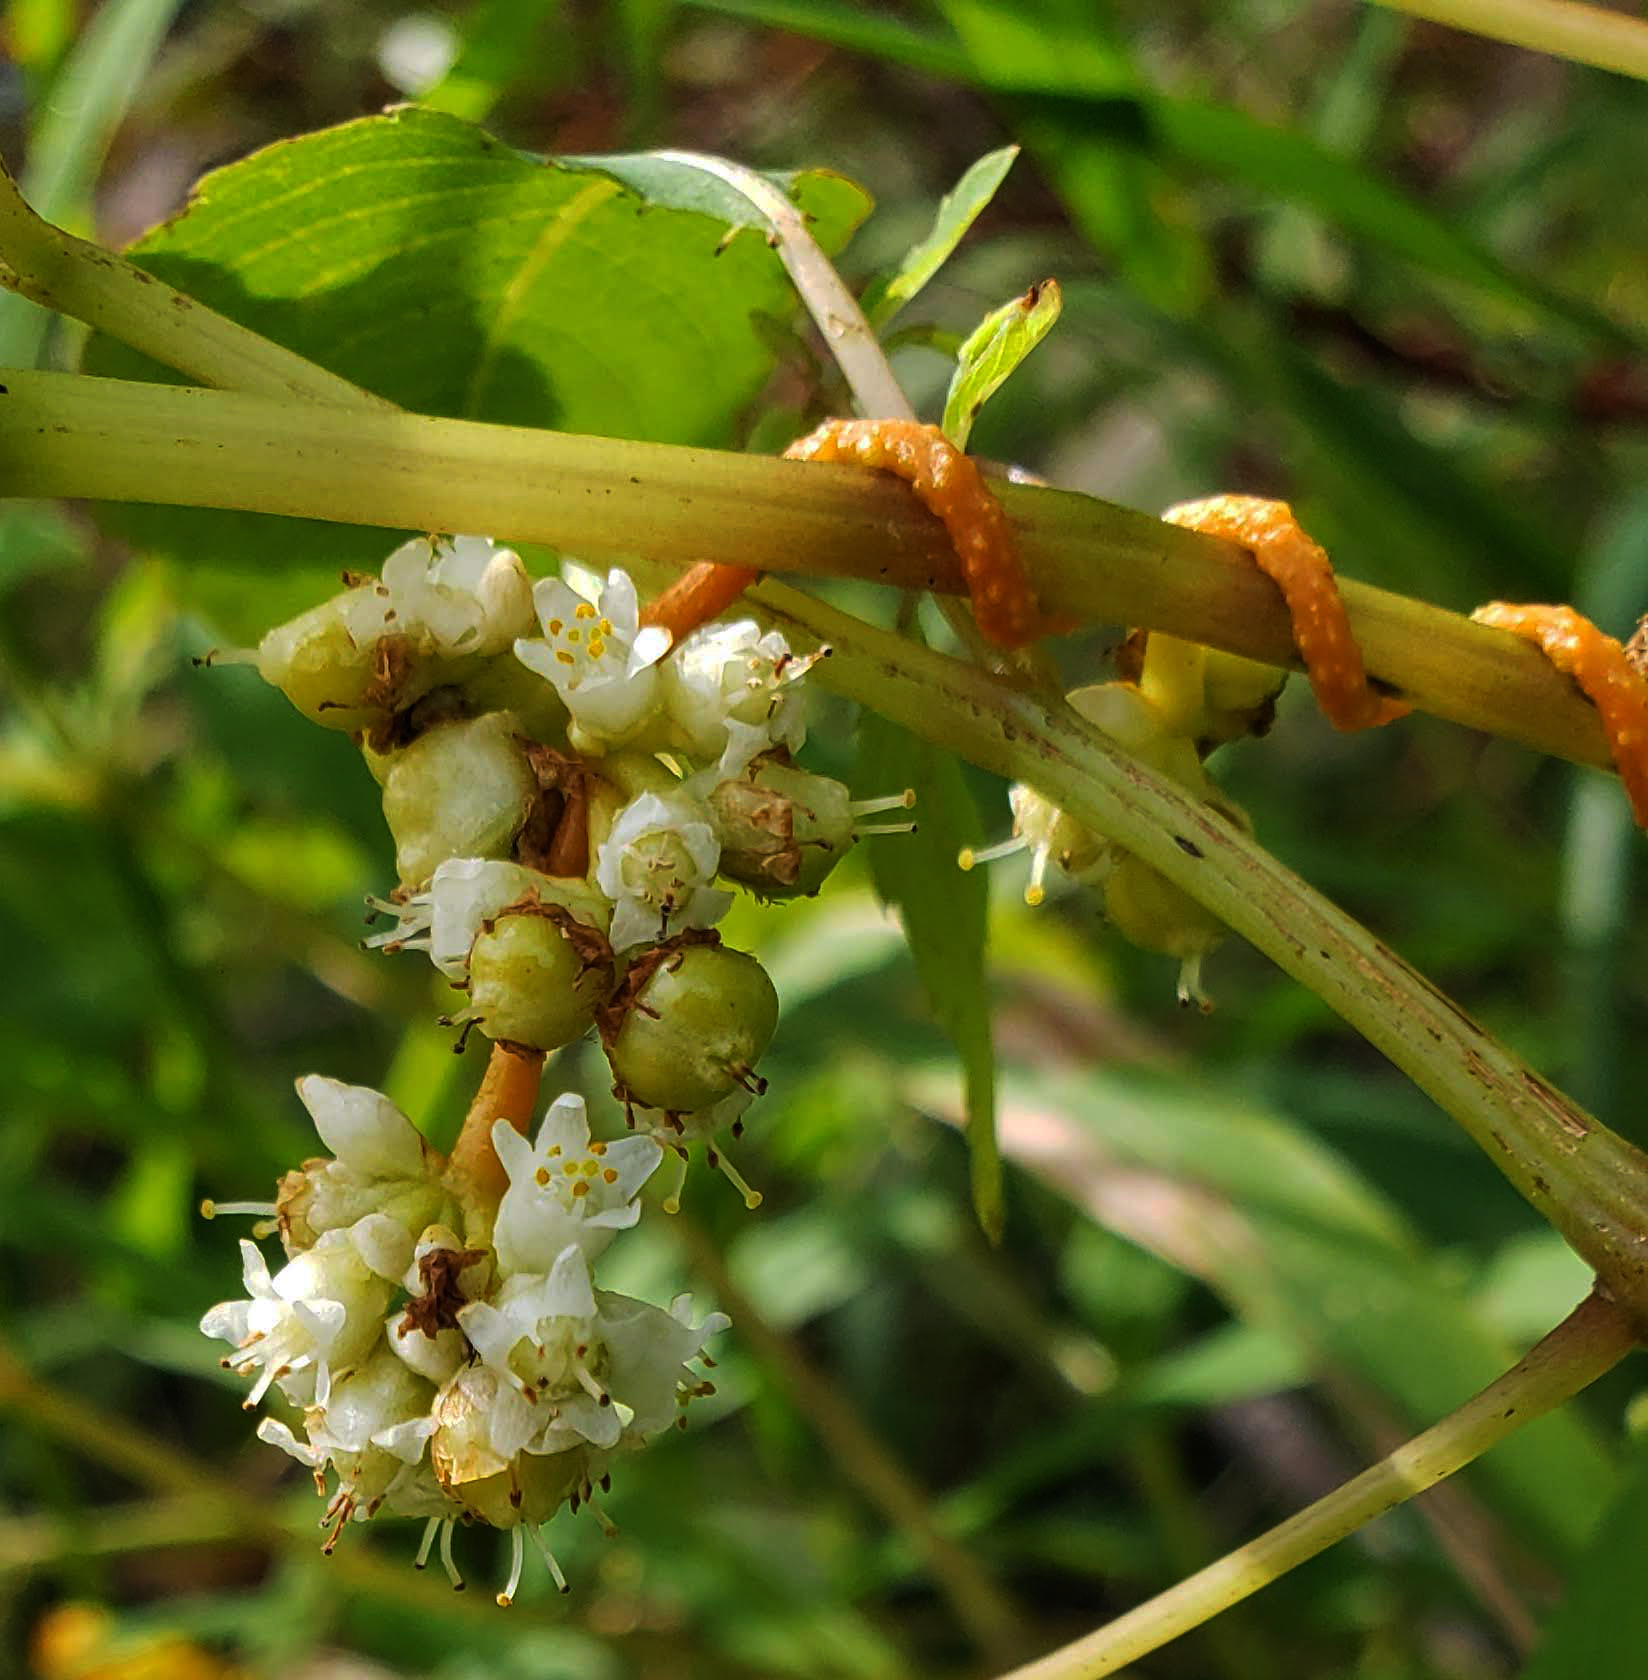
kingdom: Plantae
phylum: Tracheophyta
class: Magnoliopsida
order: Solanales
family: Convolvulaceae
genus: Cuscuta
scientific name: Cuscuta gronovii
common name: Common dodder
